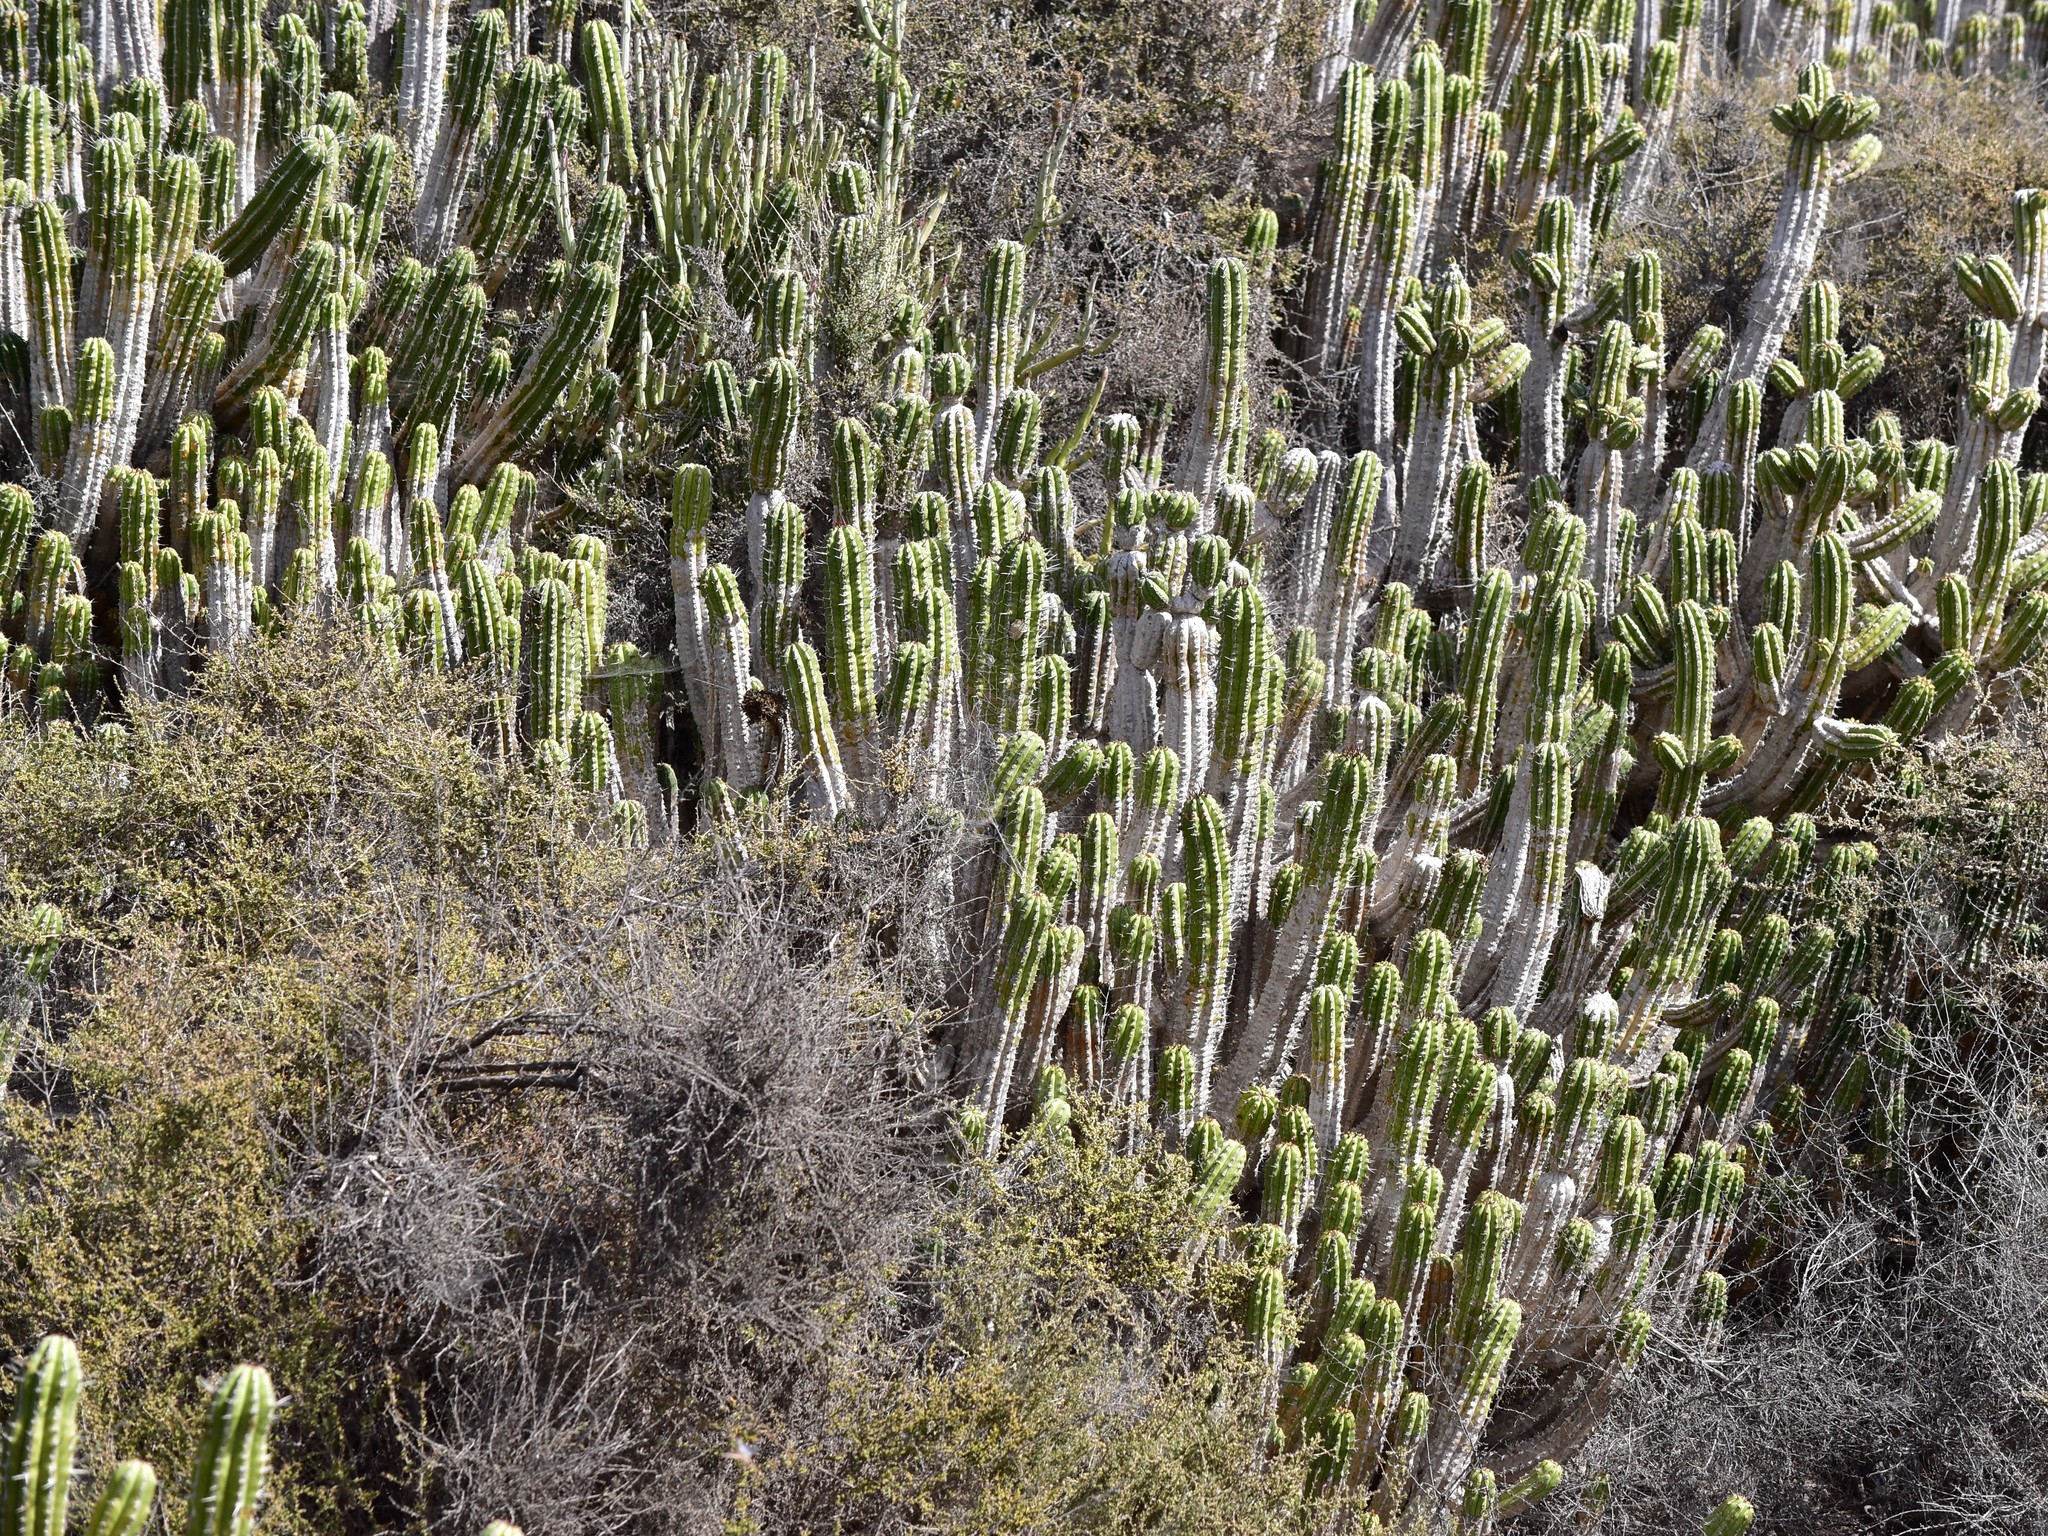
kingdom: Plantae
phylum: Tracheophyta
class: Magnoliopsida
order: Malpighiales
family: Euphorbiaceae
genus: Euphorbia
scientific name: Euphorbia officinarum
